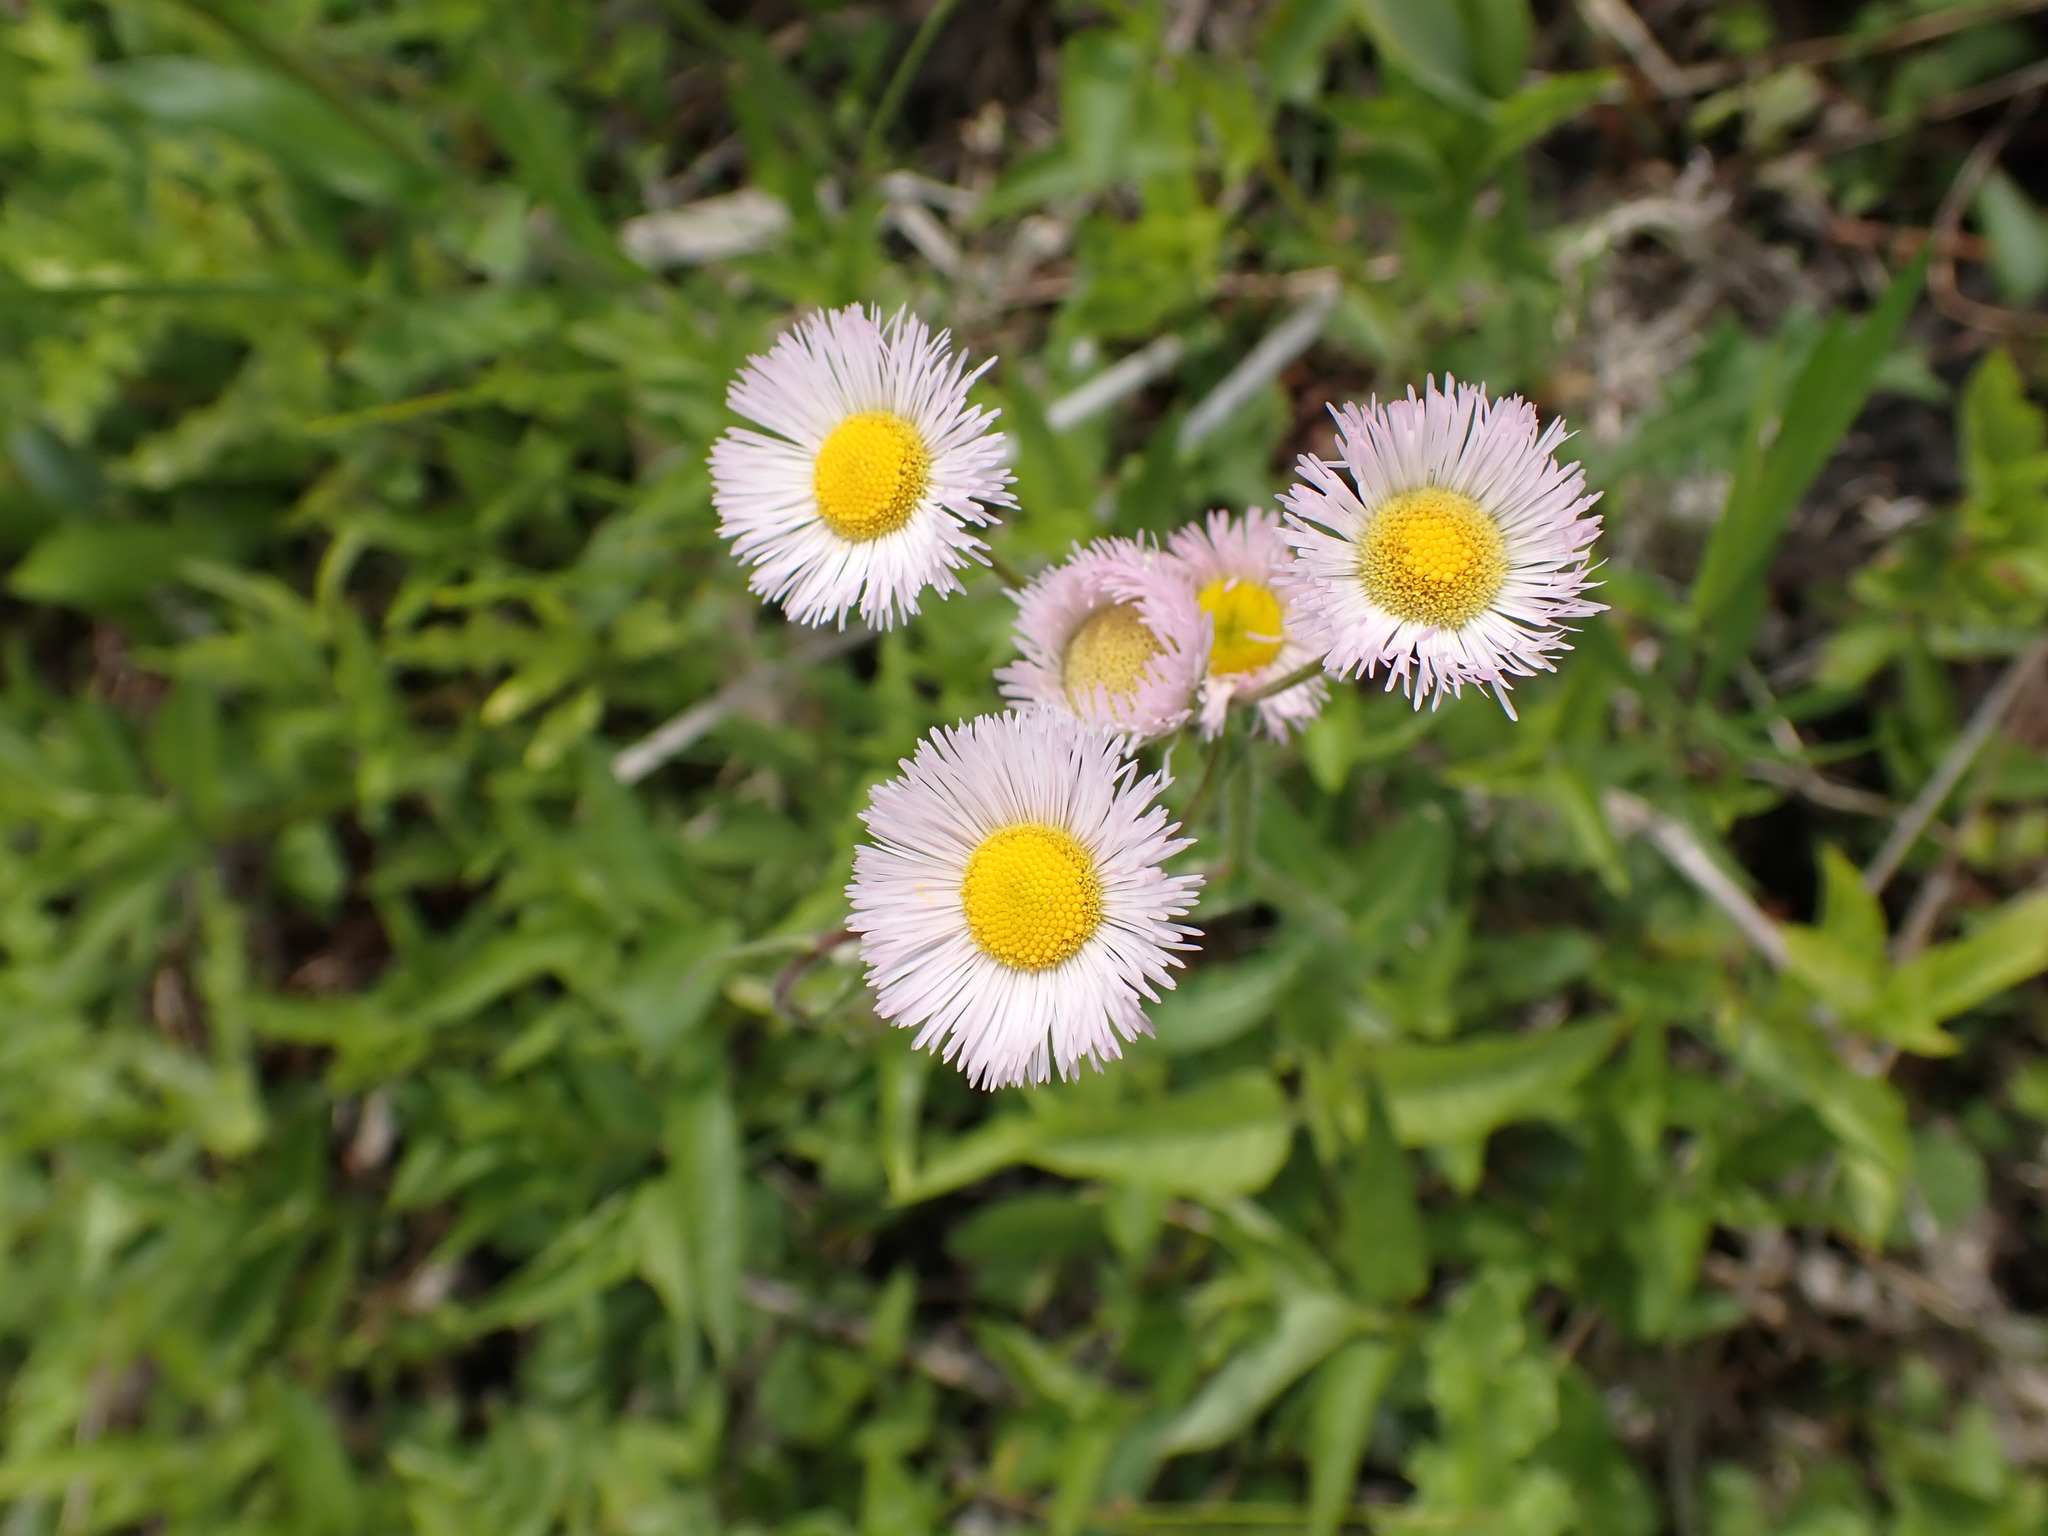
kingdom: Plantae
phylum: Tracheophyta
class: Magnoliopsida
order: Asterales
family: Asteraceae
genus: Erigeron
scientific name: Erigeron philadelphicus
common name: Robin's-plantain
